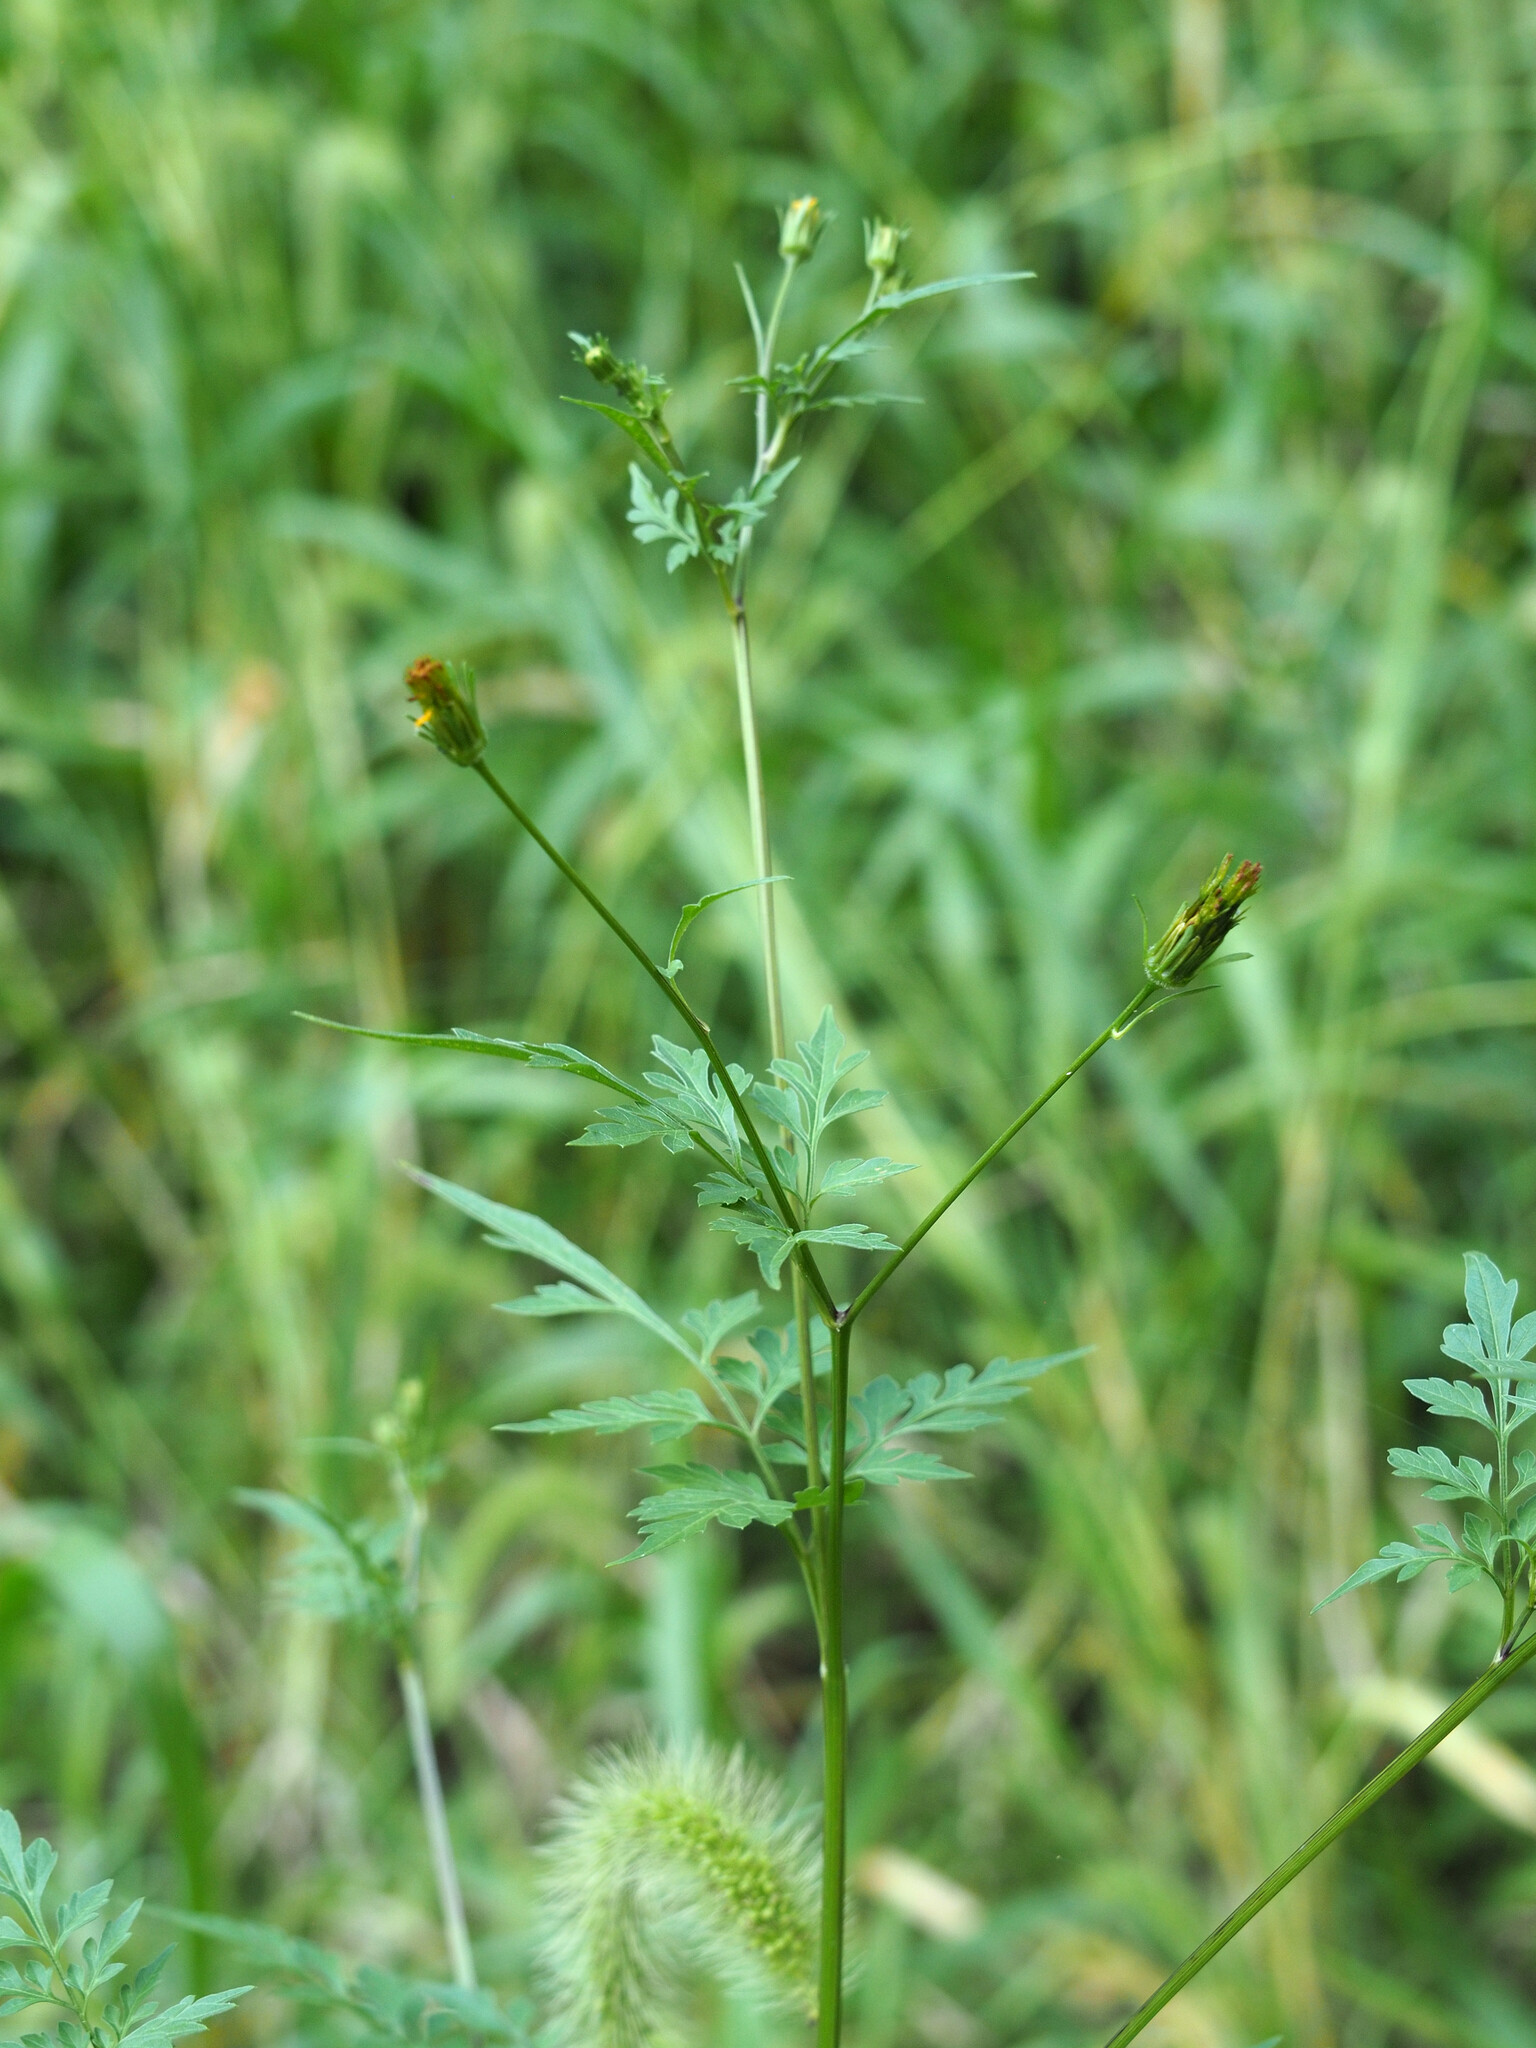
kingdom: Plantae
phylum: Tracheophyta
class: Magnoliopsida
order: Asterales
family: Asteraceae
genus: Bidens
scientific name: Bidens bipinnata
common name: Spanish-needles
